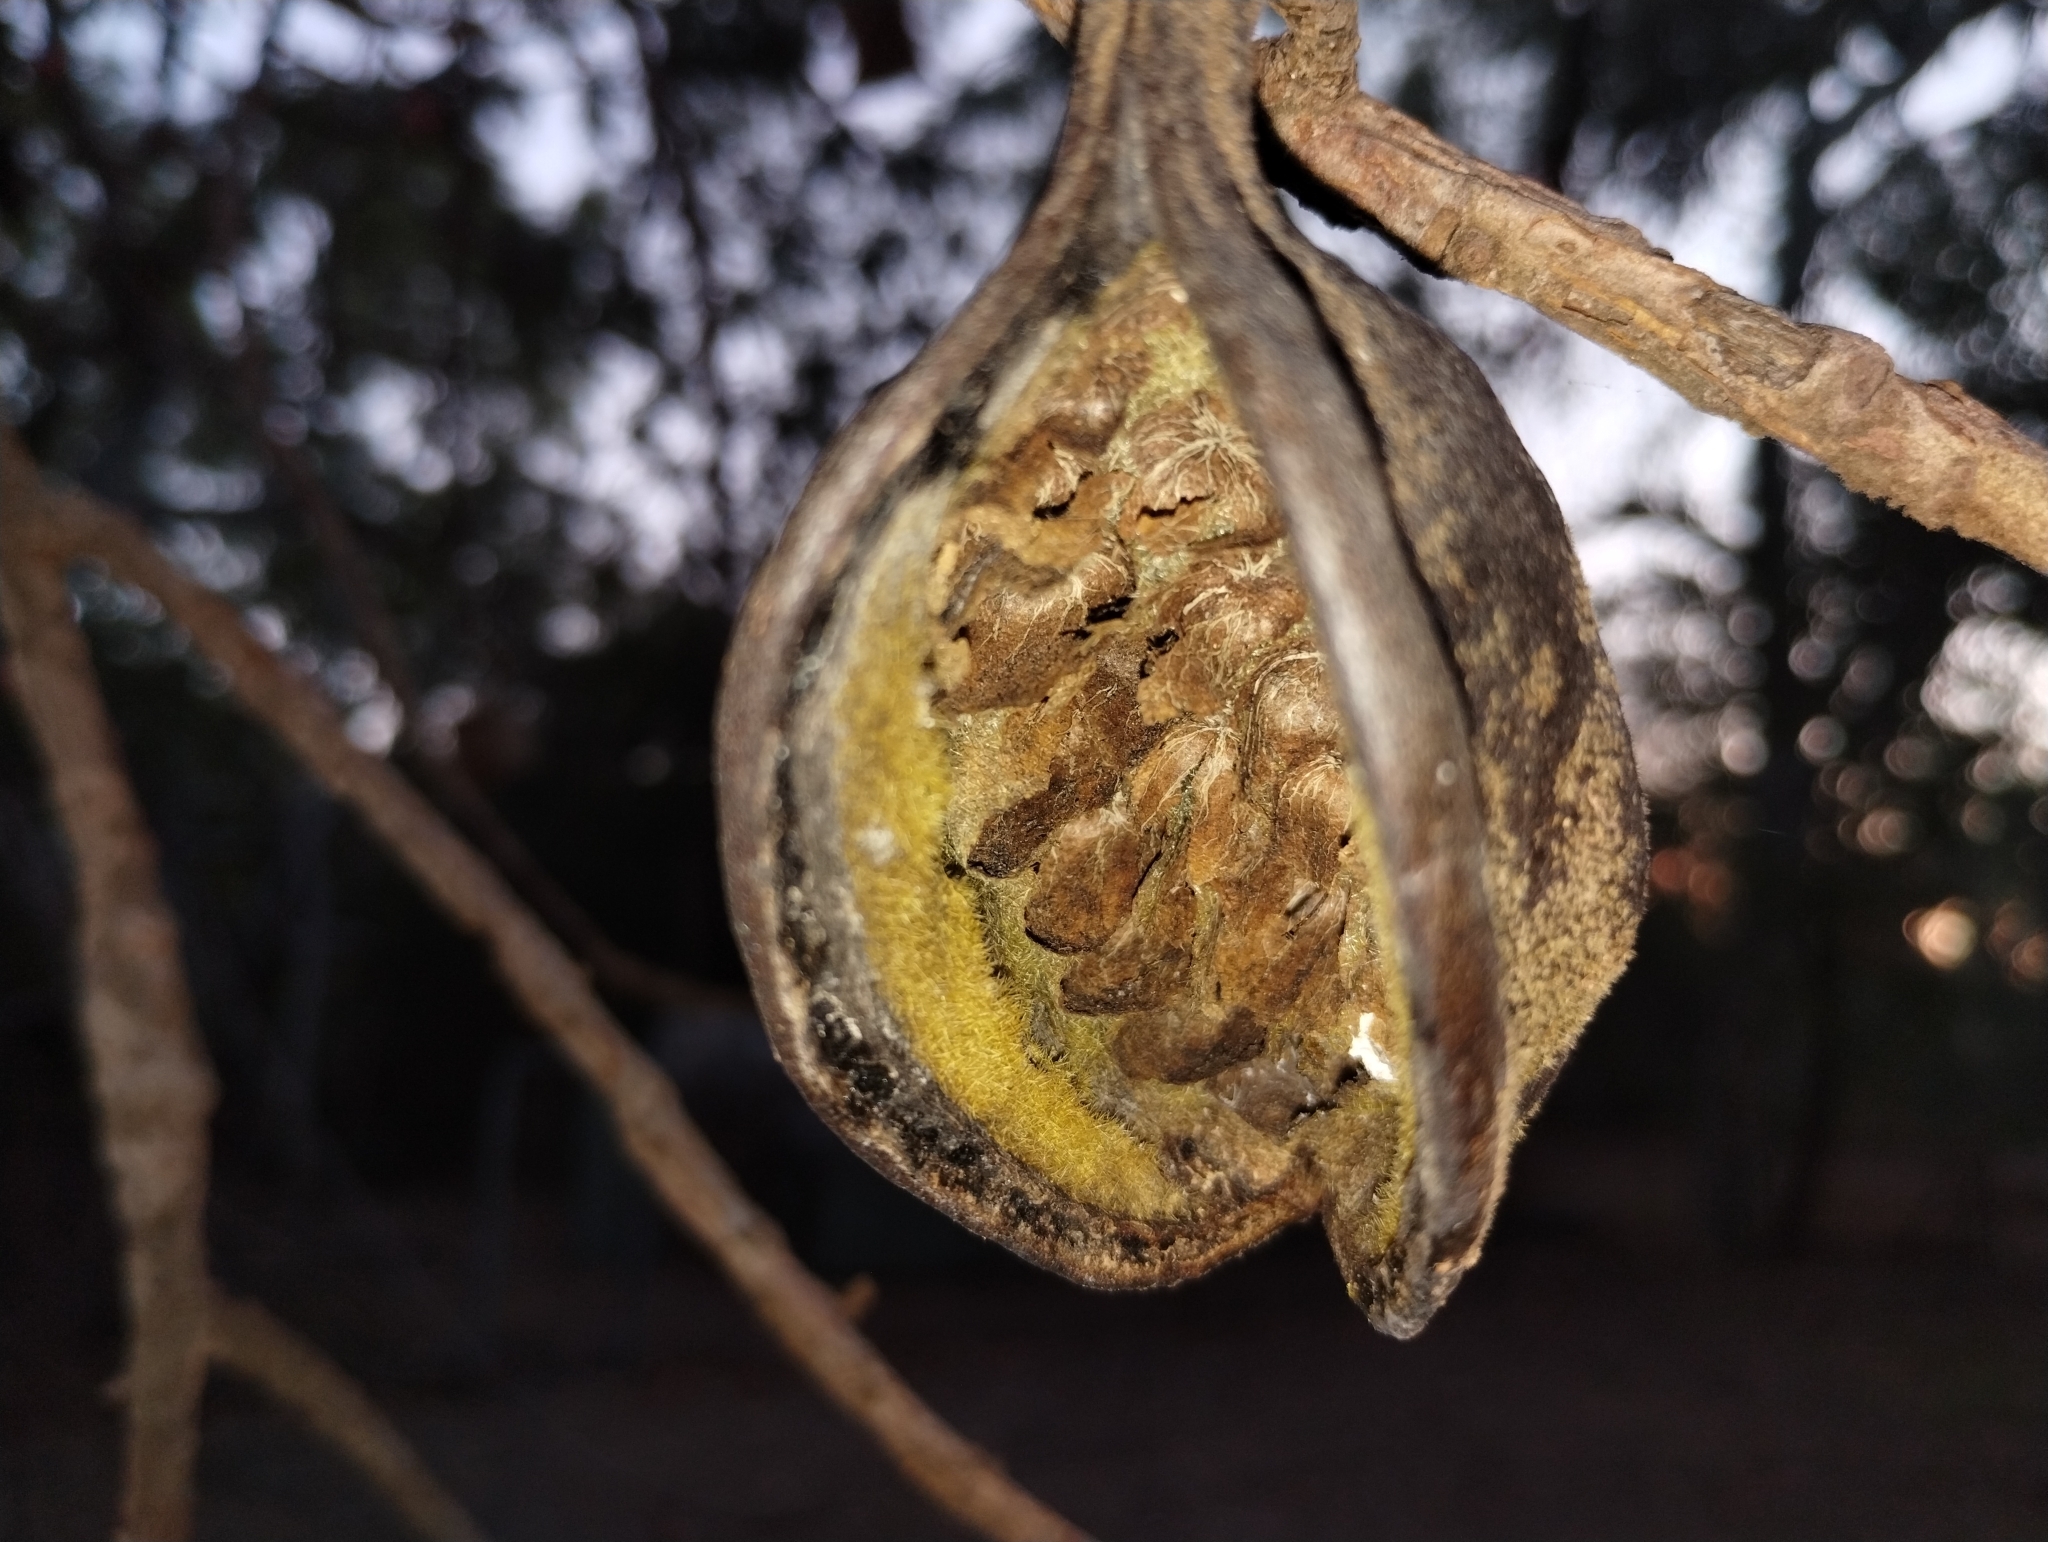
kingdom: Plantae
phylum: Tracheophyta
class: Magnoliopsida
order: Malvales
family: Malvaceae
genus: Brachychiton
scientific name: Brachychiton paradoxus
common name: Red-flower kurrajong
